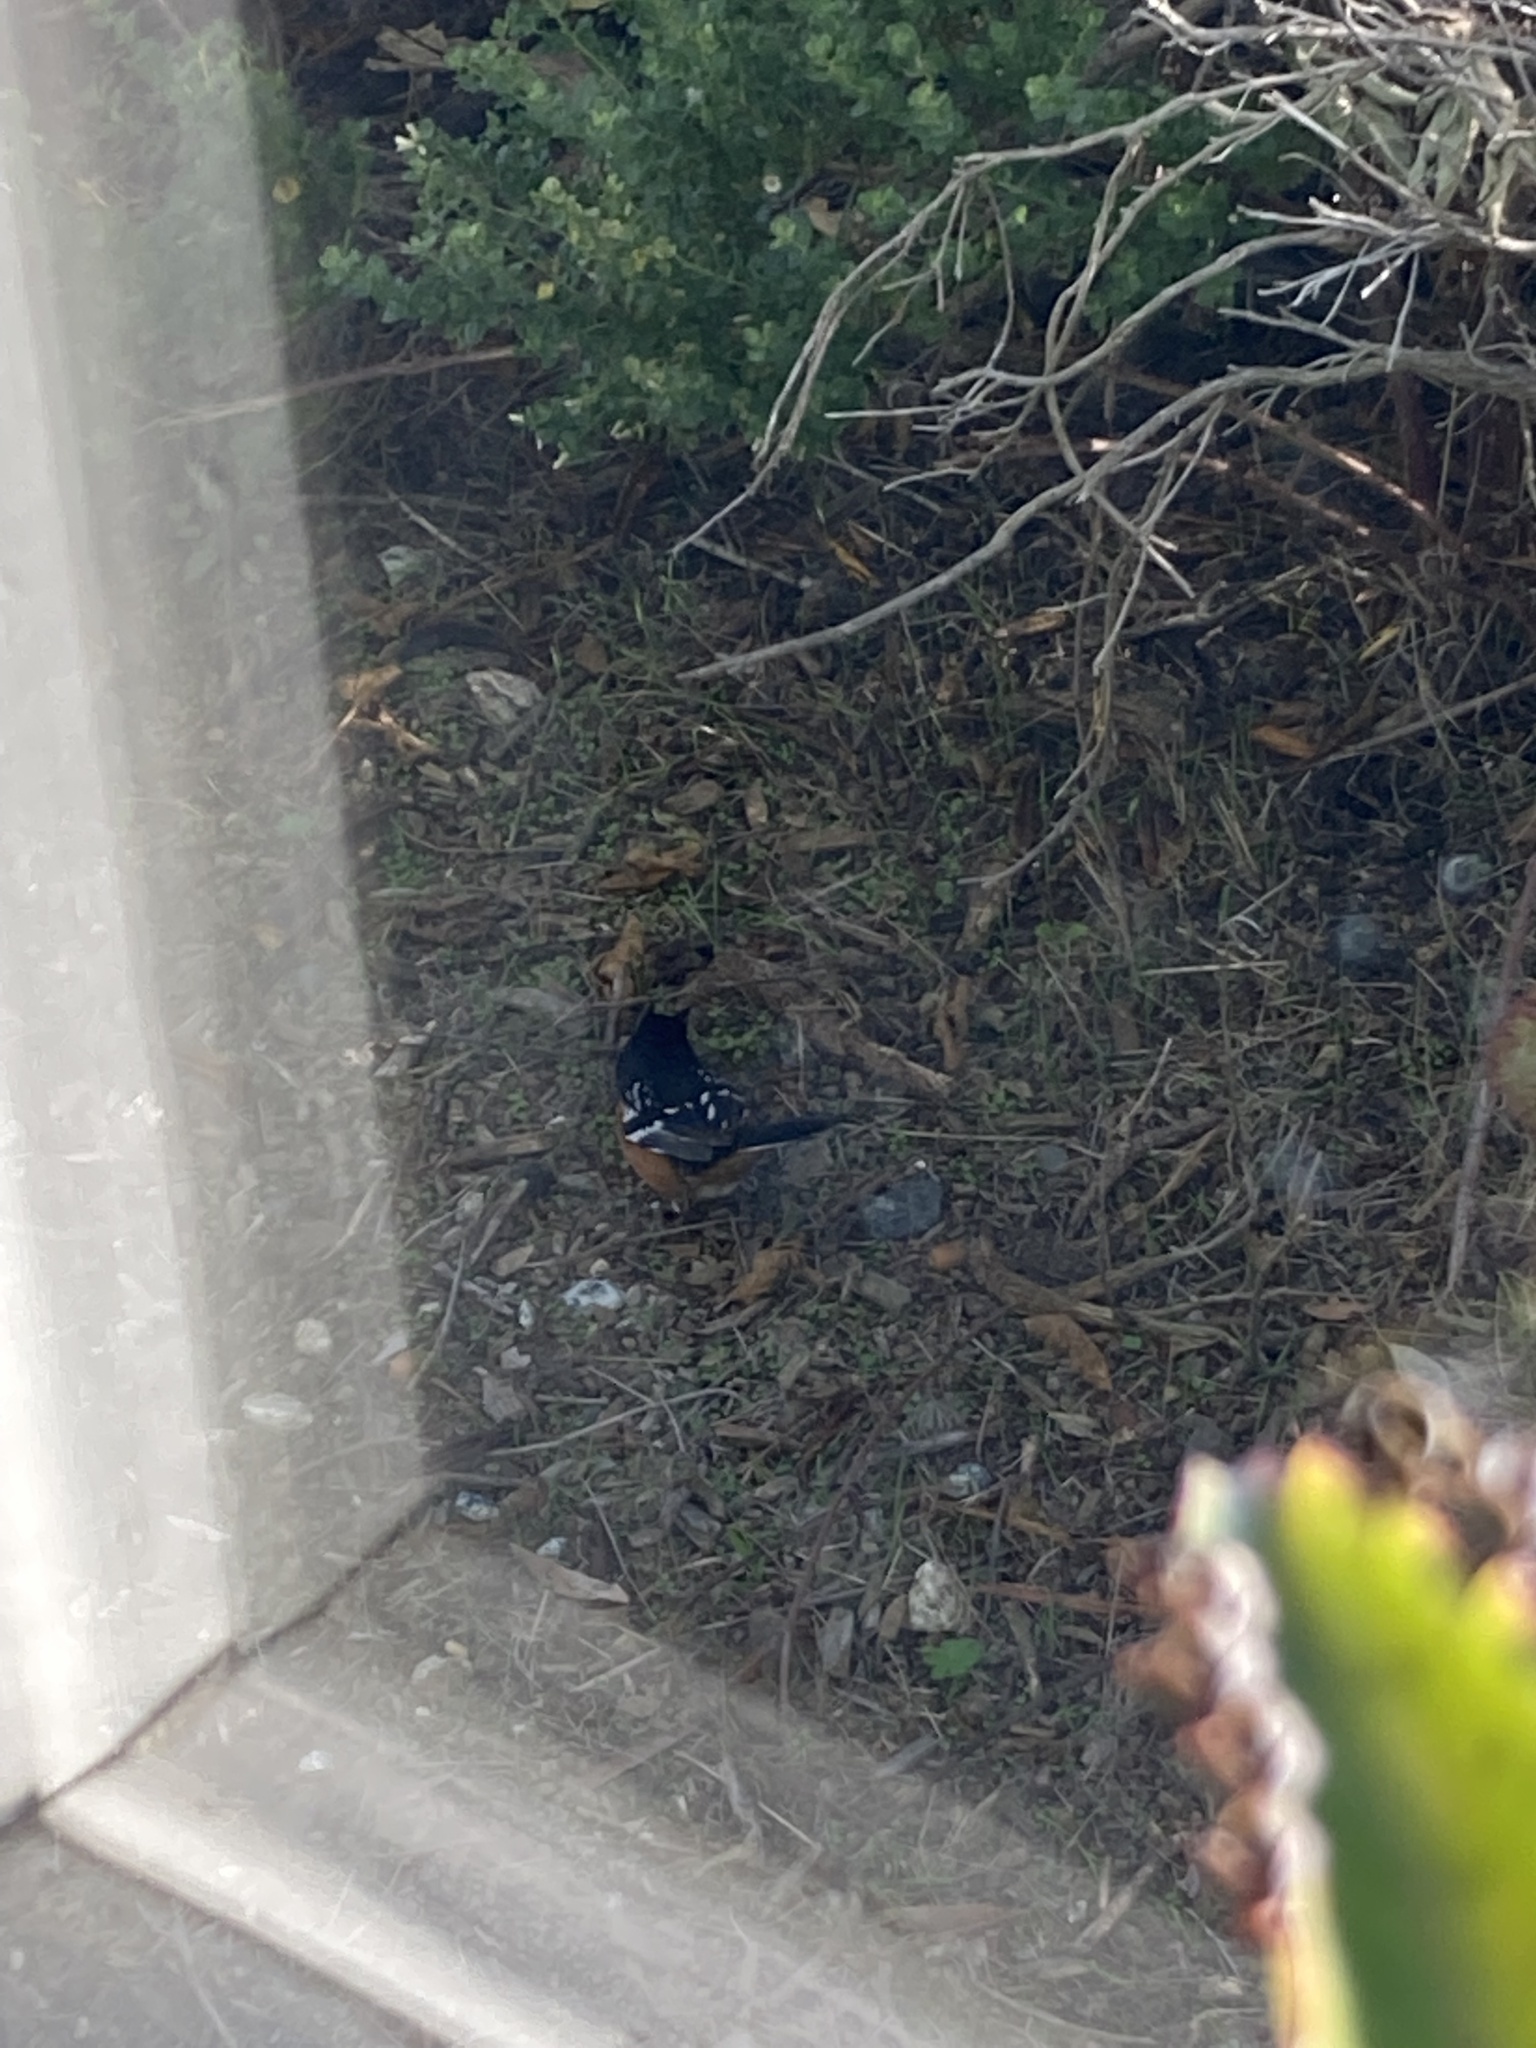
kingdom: Animalia
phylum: Chordata
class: Aves
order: Passeriformes
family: Passerellidae
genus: Pipilo
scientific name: Pipilo maculatus
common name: Spotted towhee
